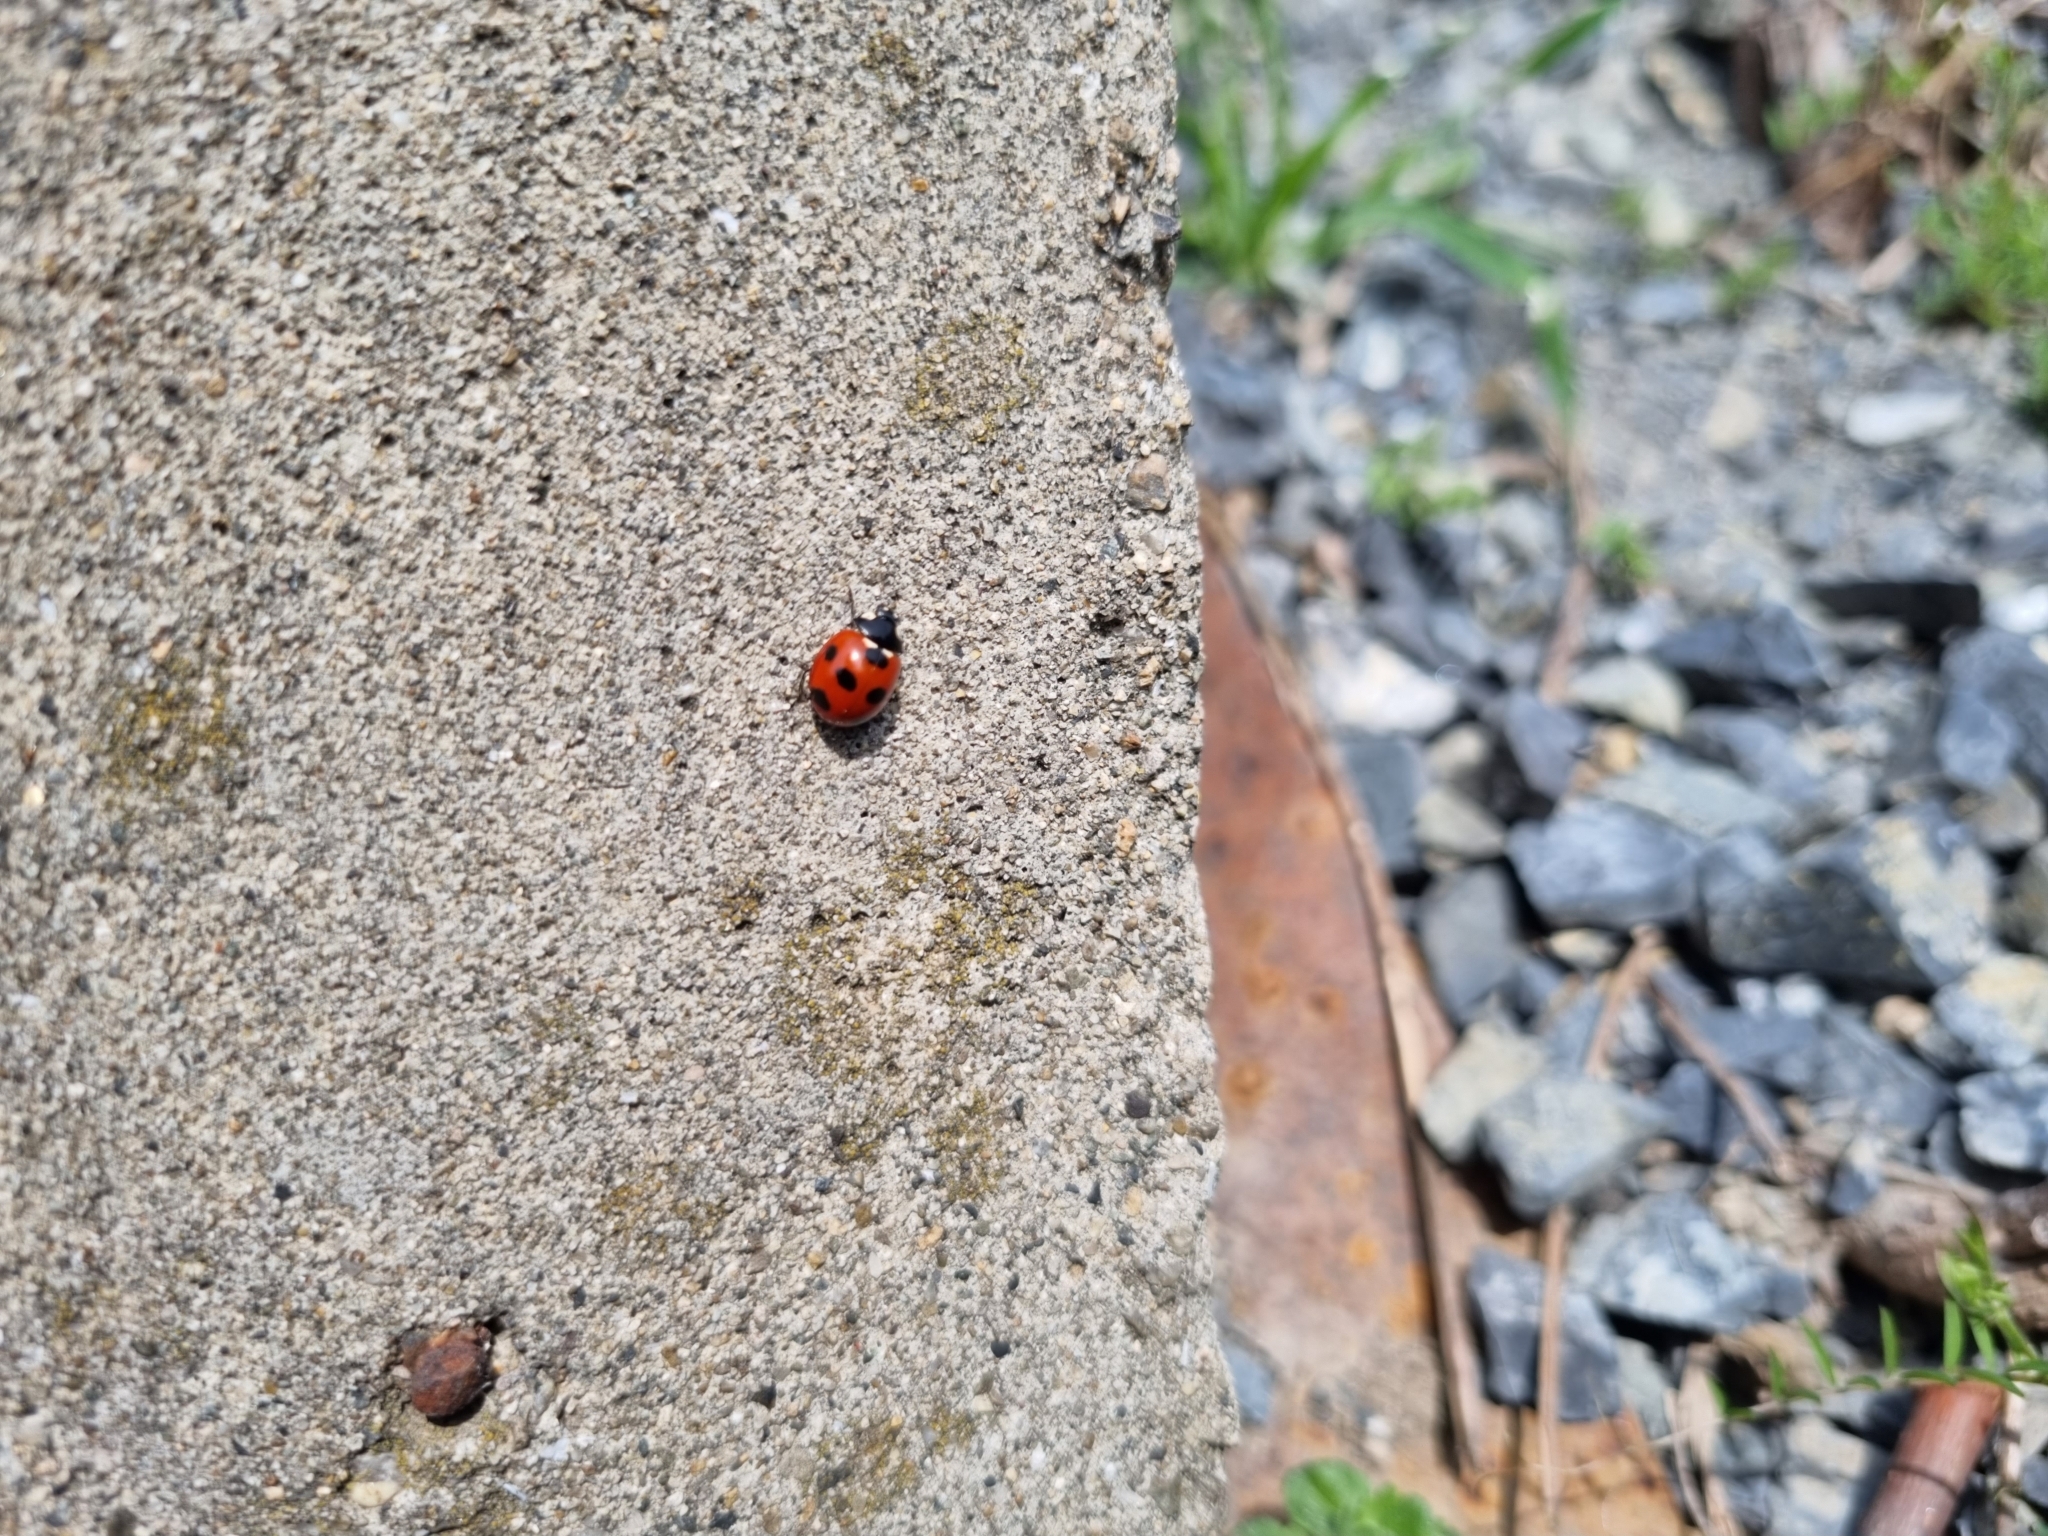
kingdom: Animalia
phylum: Arthropoda
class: Insecta
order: Coleoptera
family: Coccinellidae
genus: Coccinella
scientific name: Coccinella septempunctata
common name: Sevenspotted lady beetle
